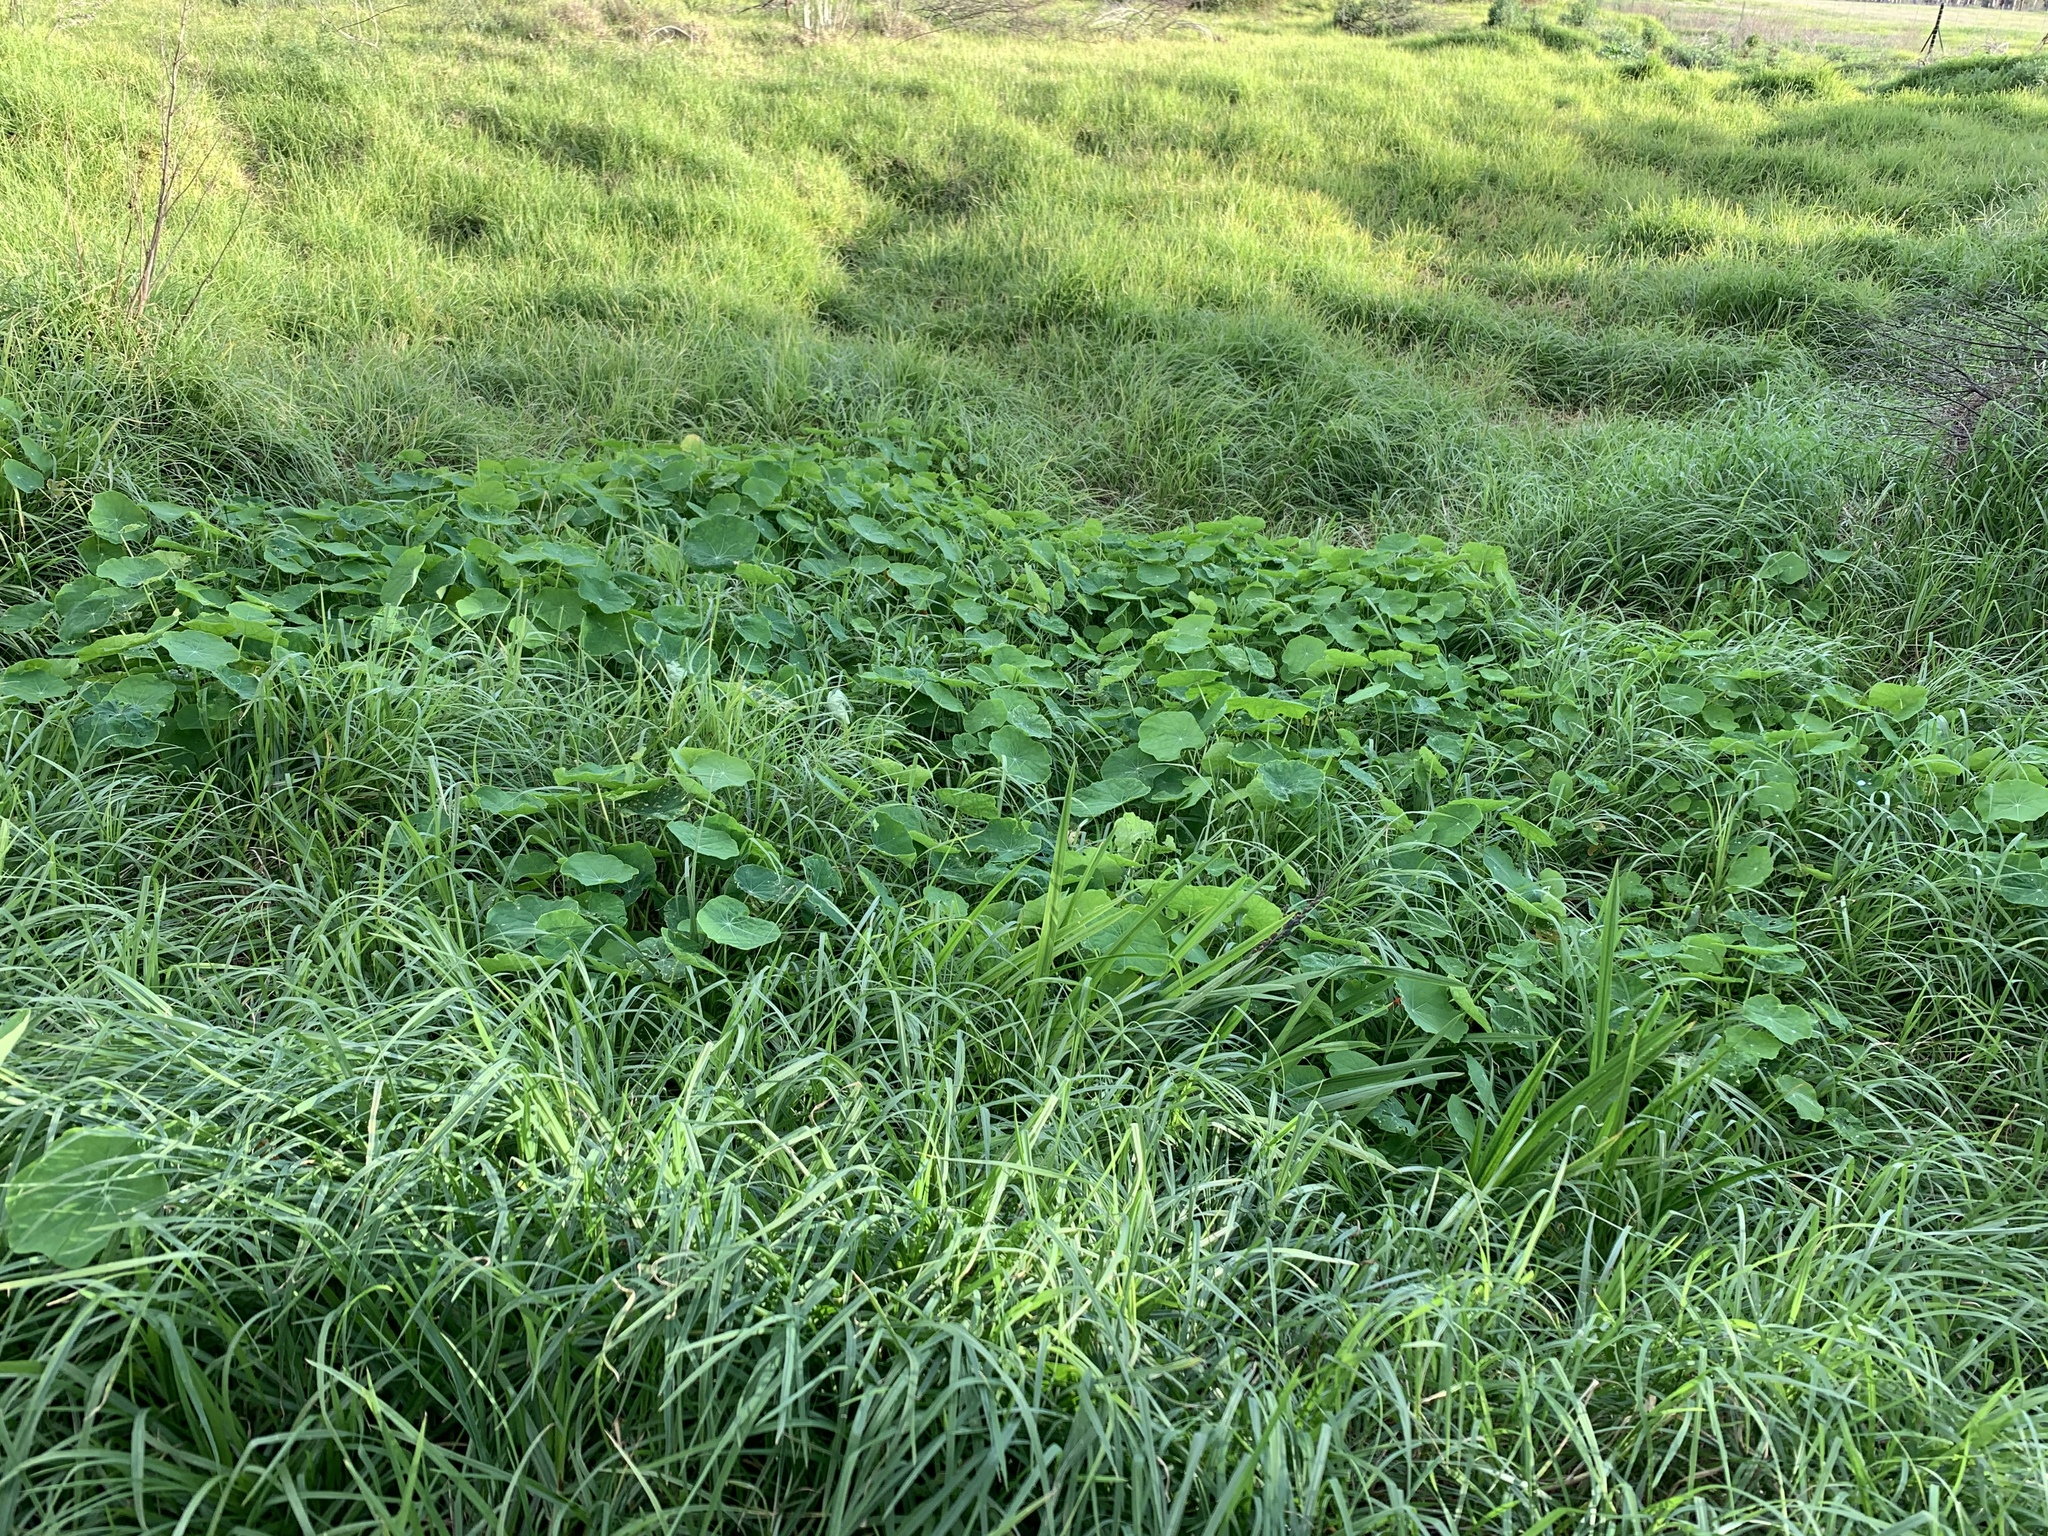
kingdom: Plantae
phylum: Tracheophyta
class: Magnoliopsida
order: Brassicales
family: Tropaeolaceae
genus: Tropaeolum
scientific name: Tropaeolum majus
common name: Nasturtium
